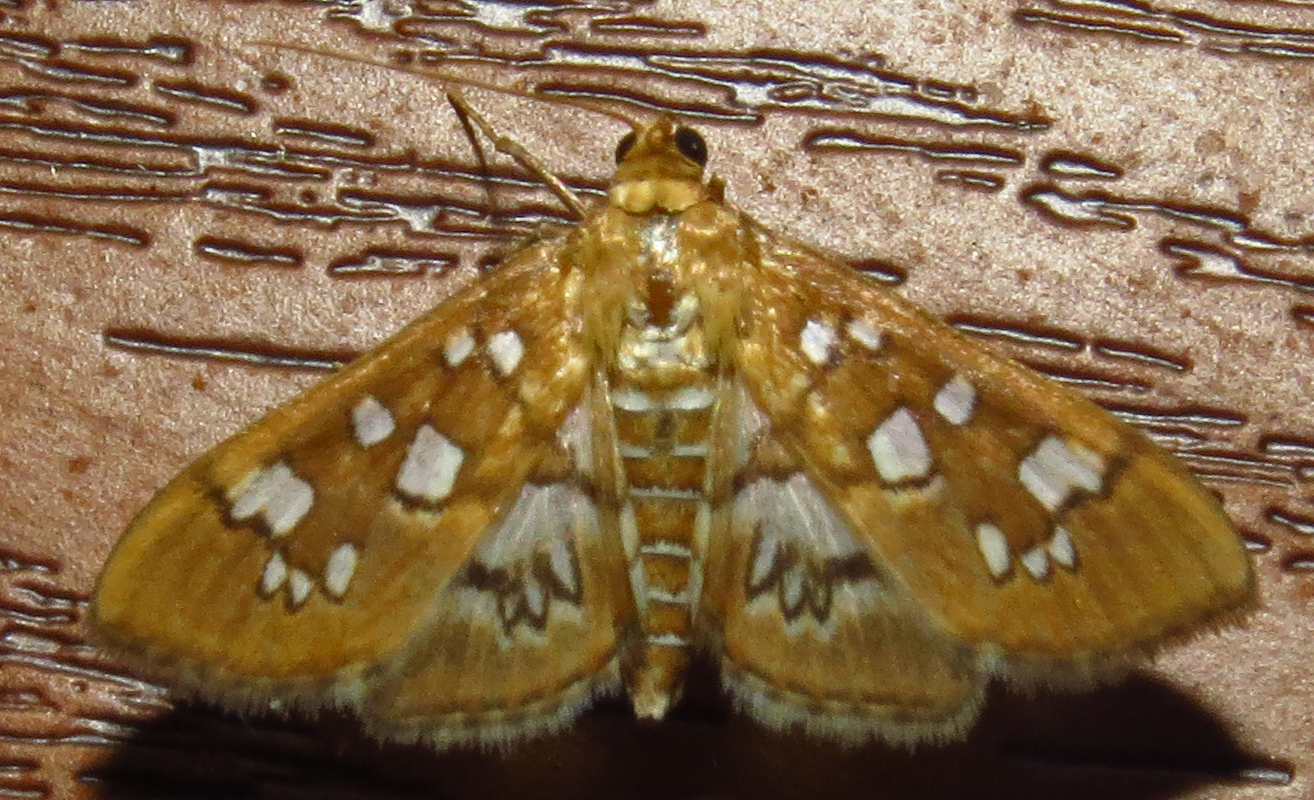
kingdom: Animalia
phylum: Arthropoda
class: Insecta
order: Lepidoptera
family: Crambidae
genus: Samea
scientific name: Samea baccatalis
